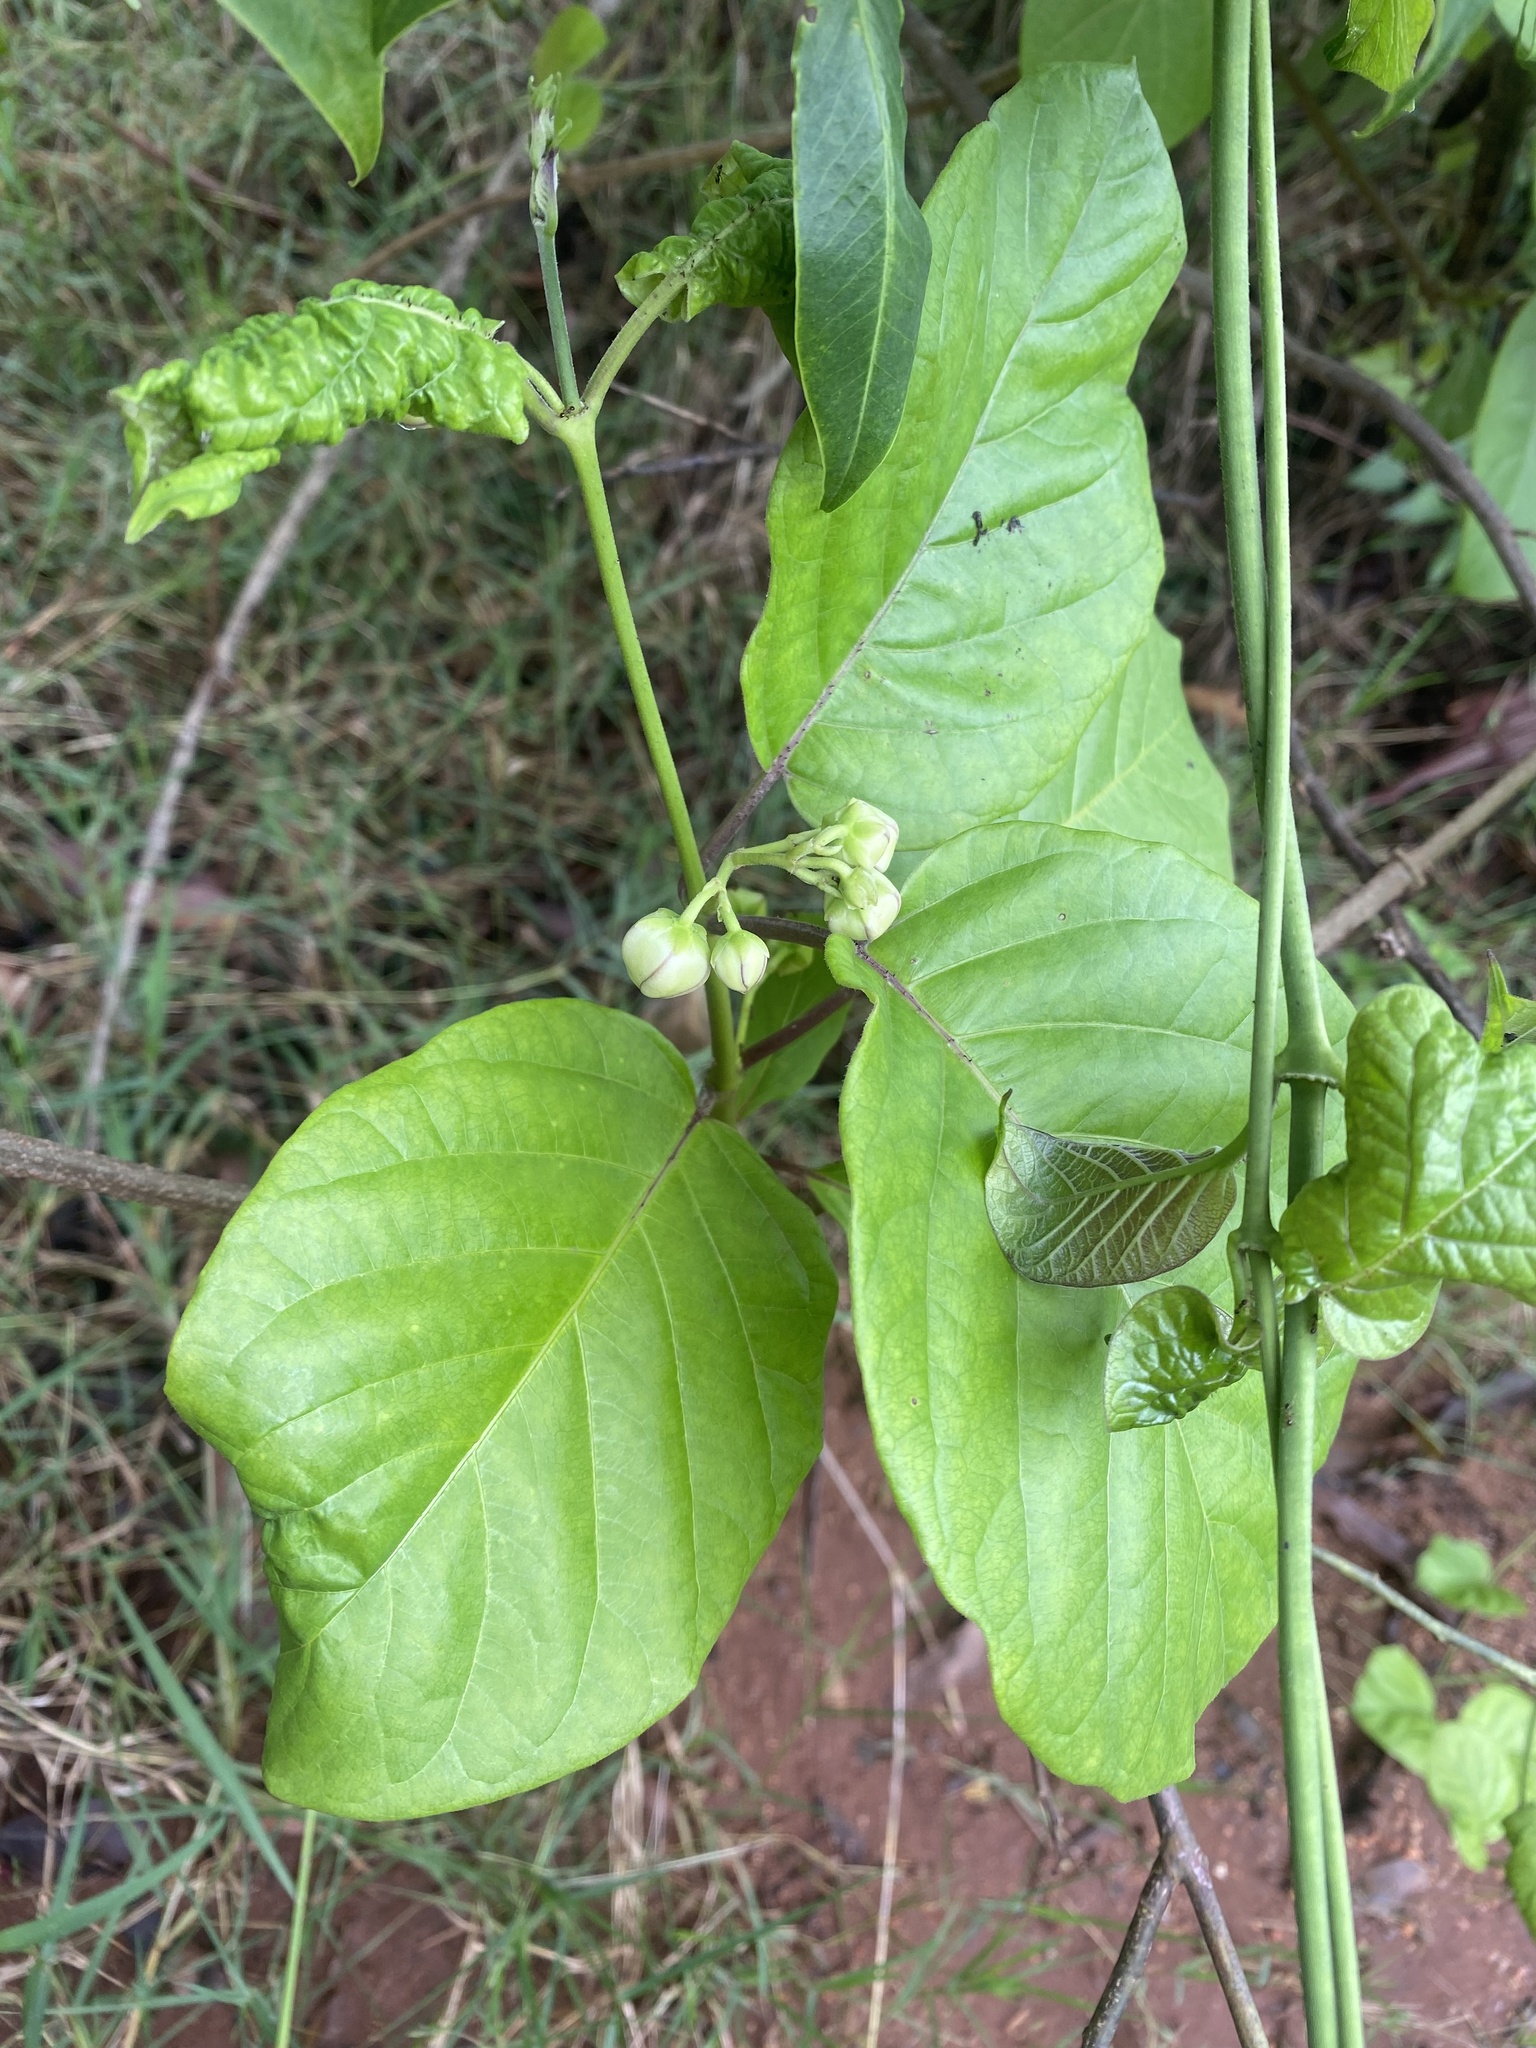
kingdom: Plantae
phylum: Tracheophyta
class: Magnoliopsida
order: Gentianales
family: Apocynaceae
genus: Mondia
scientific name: Mondia whitei
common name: Mondia
